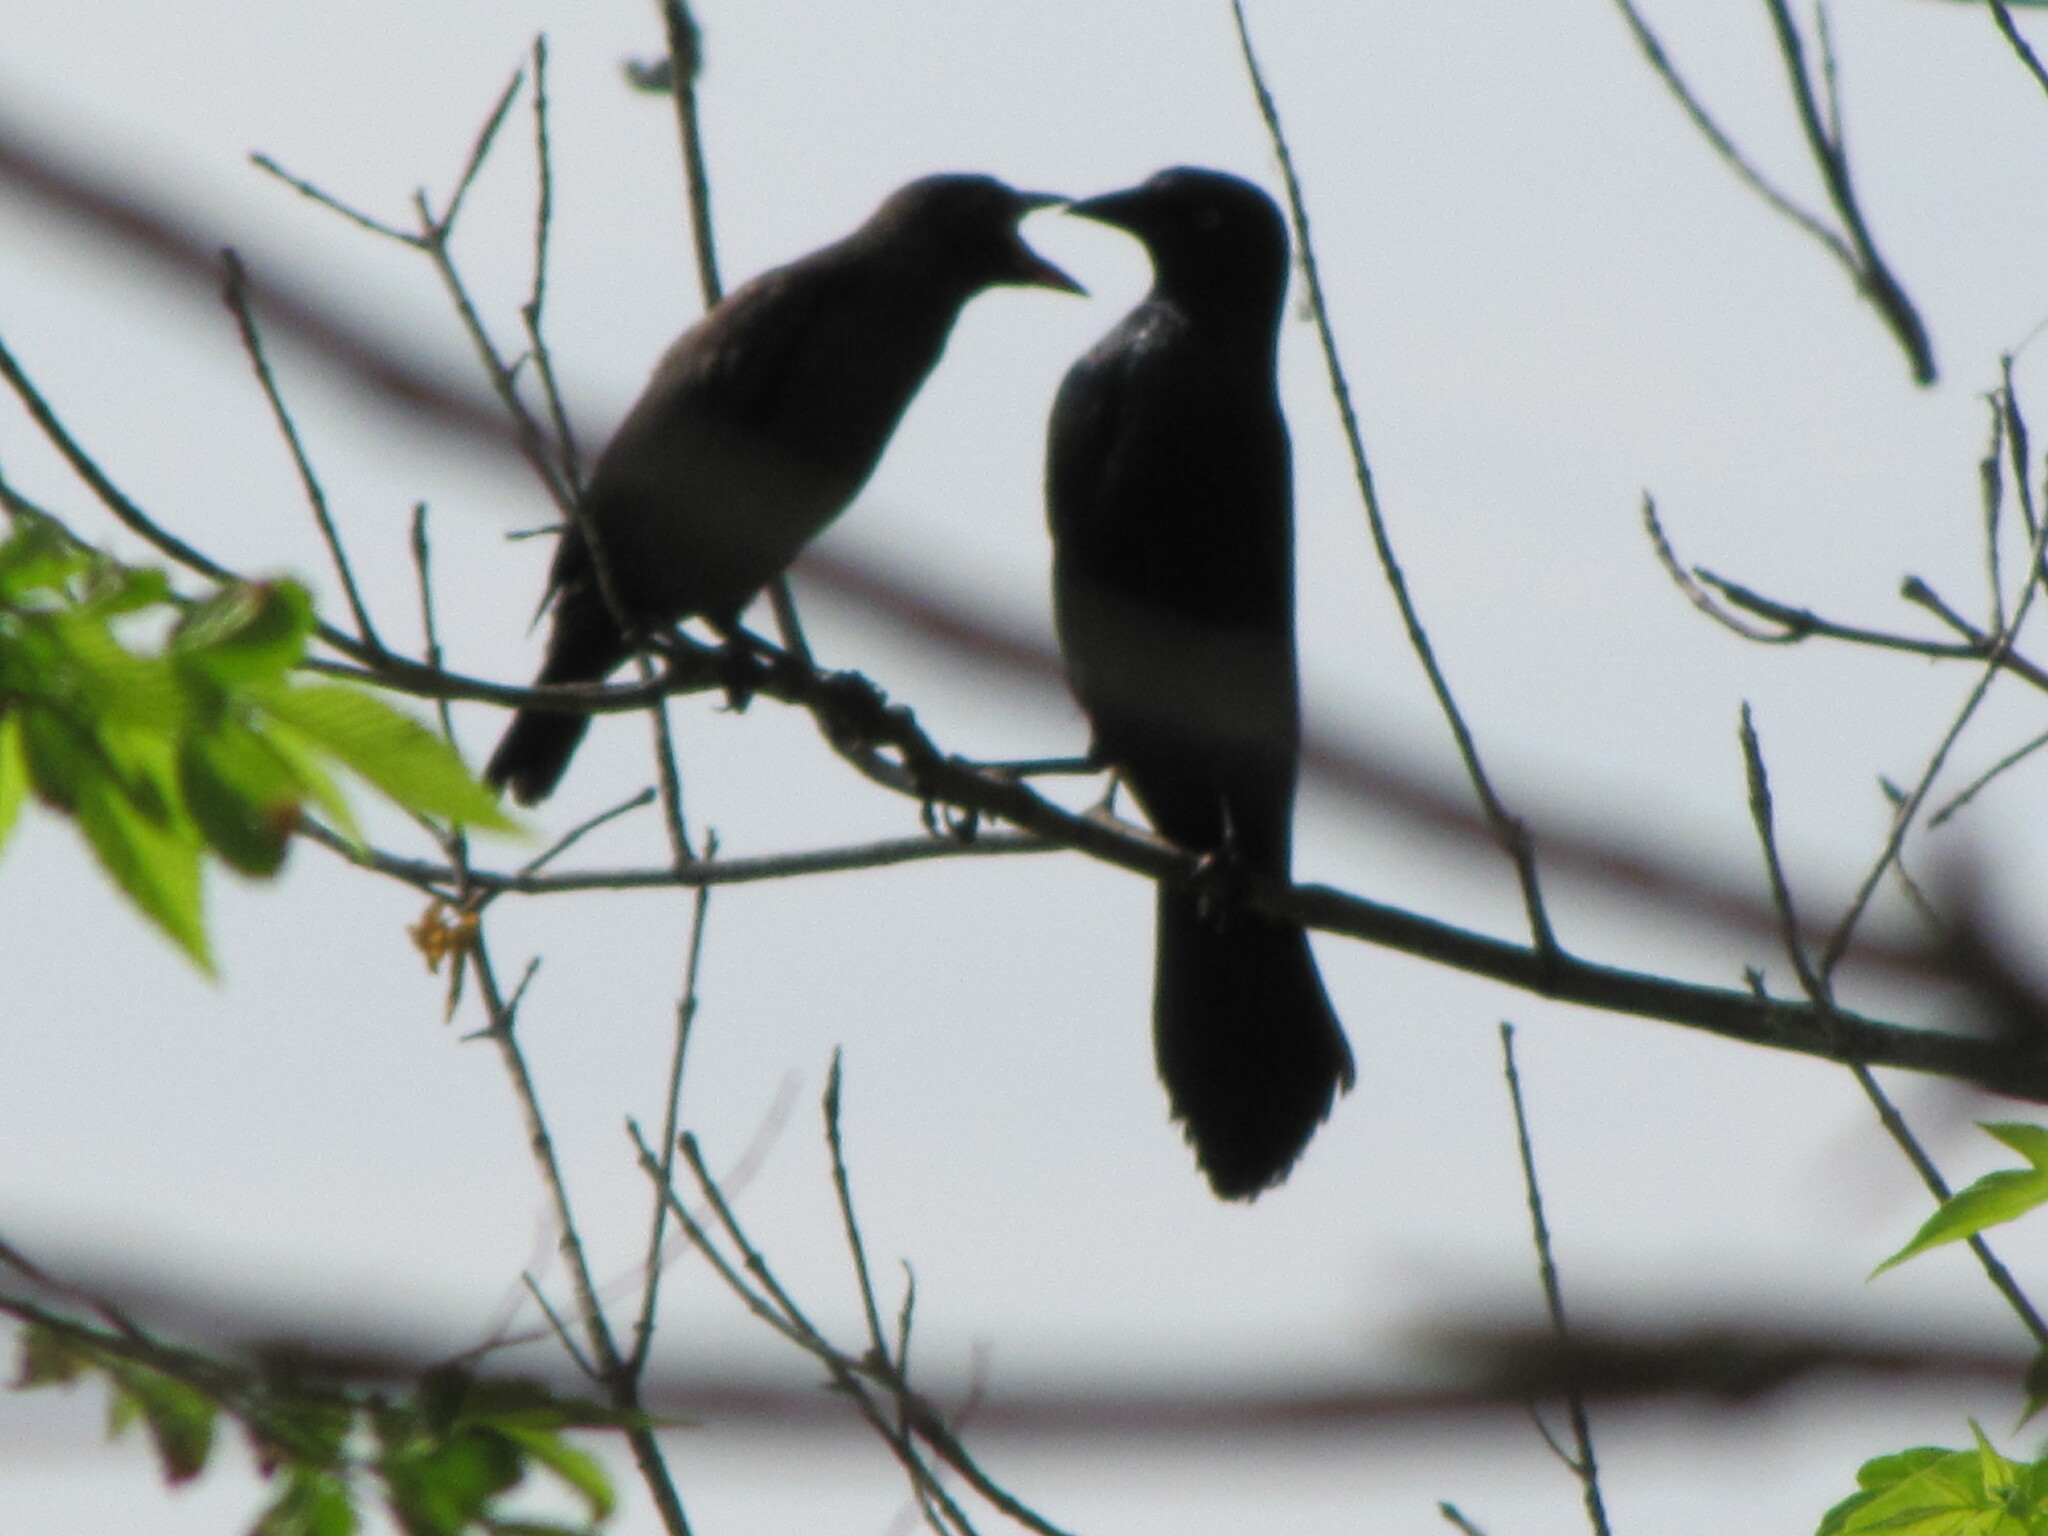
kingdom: Animalia
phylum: Chordata
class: Aves
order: Passeriformes
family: Icteridae
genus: Quiscalus
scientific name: Quiscalus quiscula
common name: Common grackle
